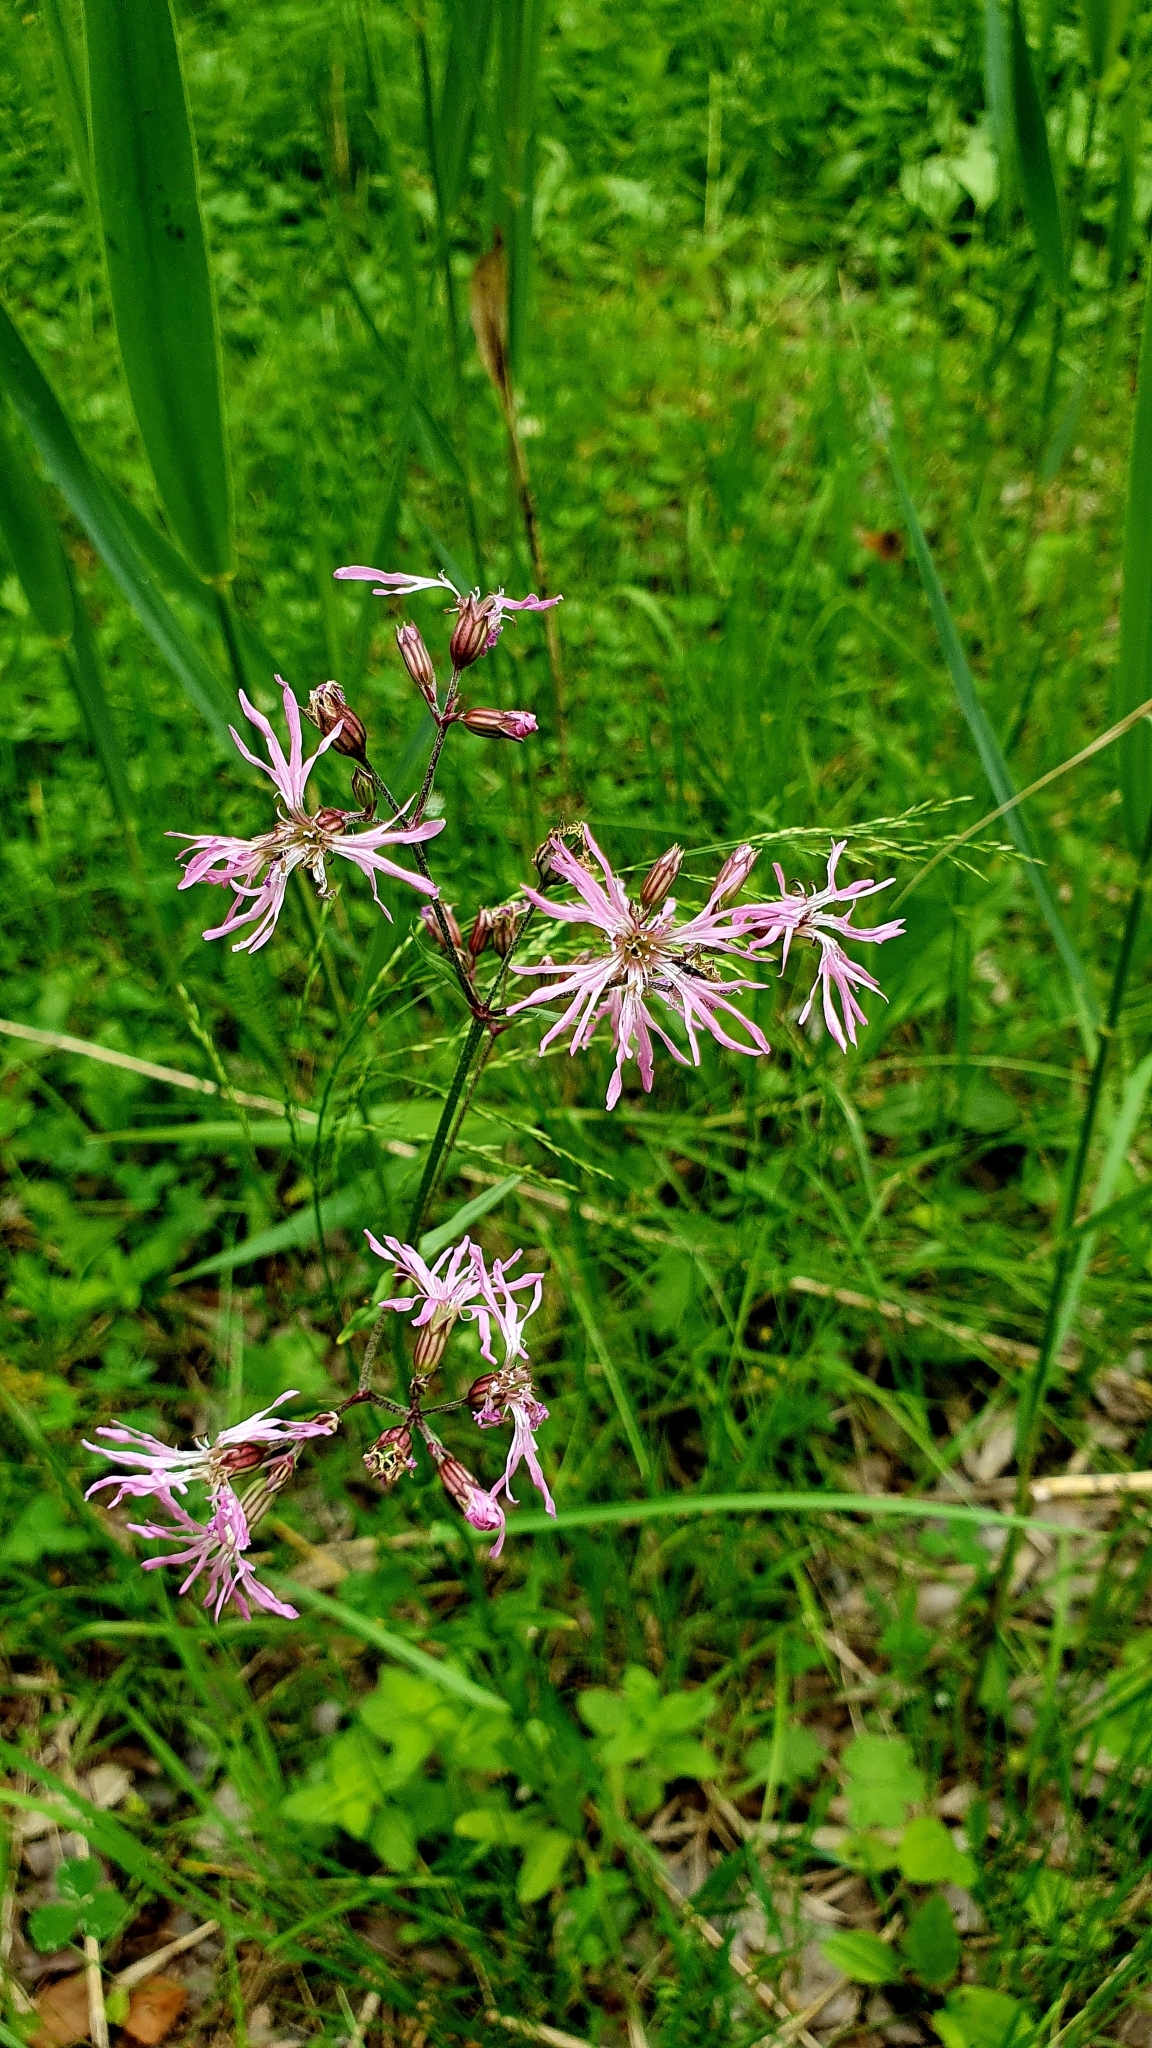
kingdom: Plantae
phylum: Tracheophyta
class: Magnoliopsida
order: Caryophyllales
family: Caryophyllaceae
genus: Silene
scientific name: Silene flos-cuculi
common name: Ragged-robin
